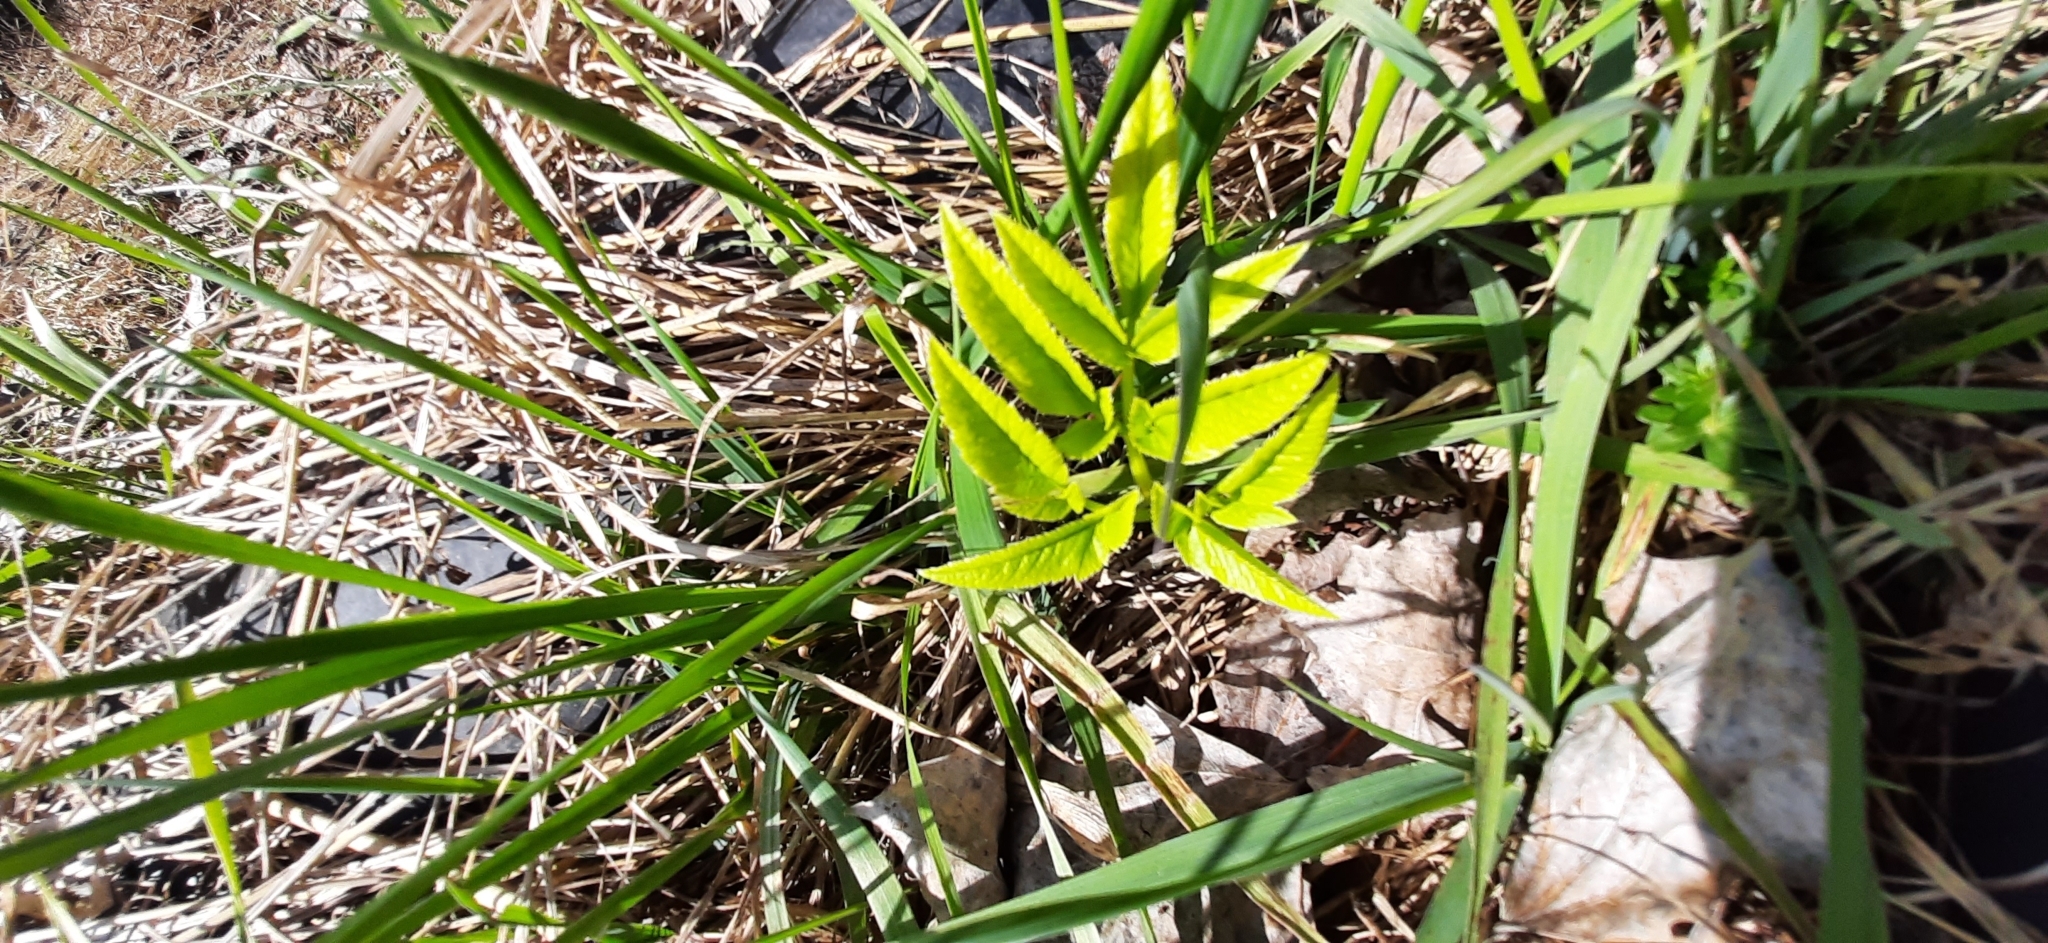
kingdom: Plantae
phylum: Tracheophyta
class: Magnoliopsida
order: Apiales
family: Apiaceae
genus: Angelica
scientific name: Angelica sylvestris
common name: Wild angelica
